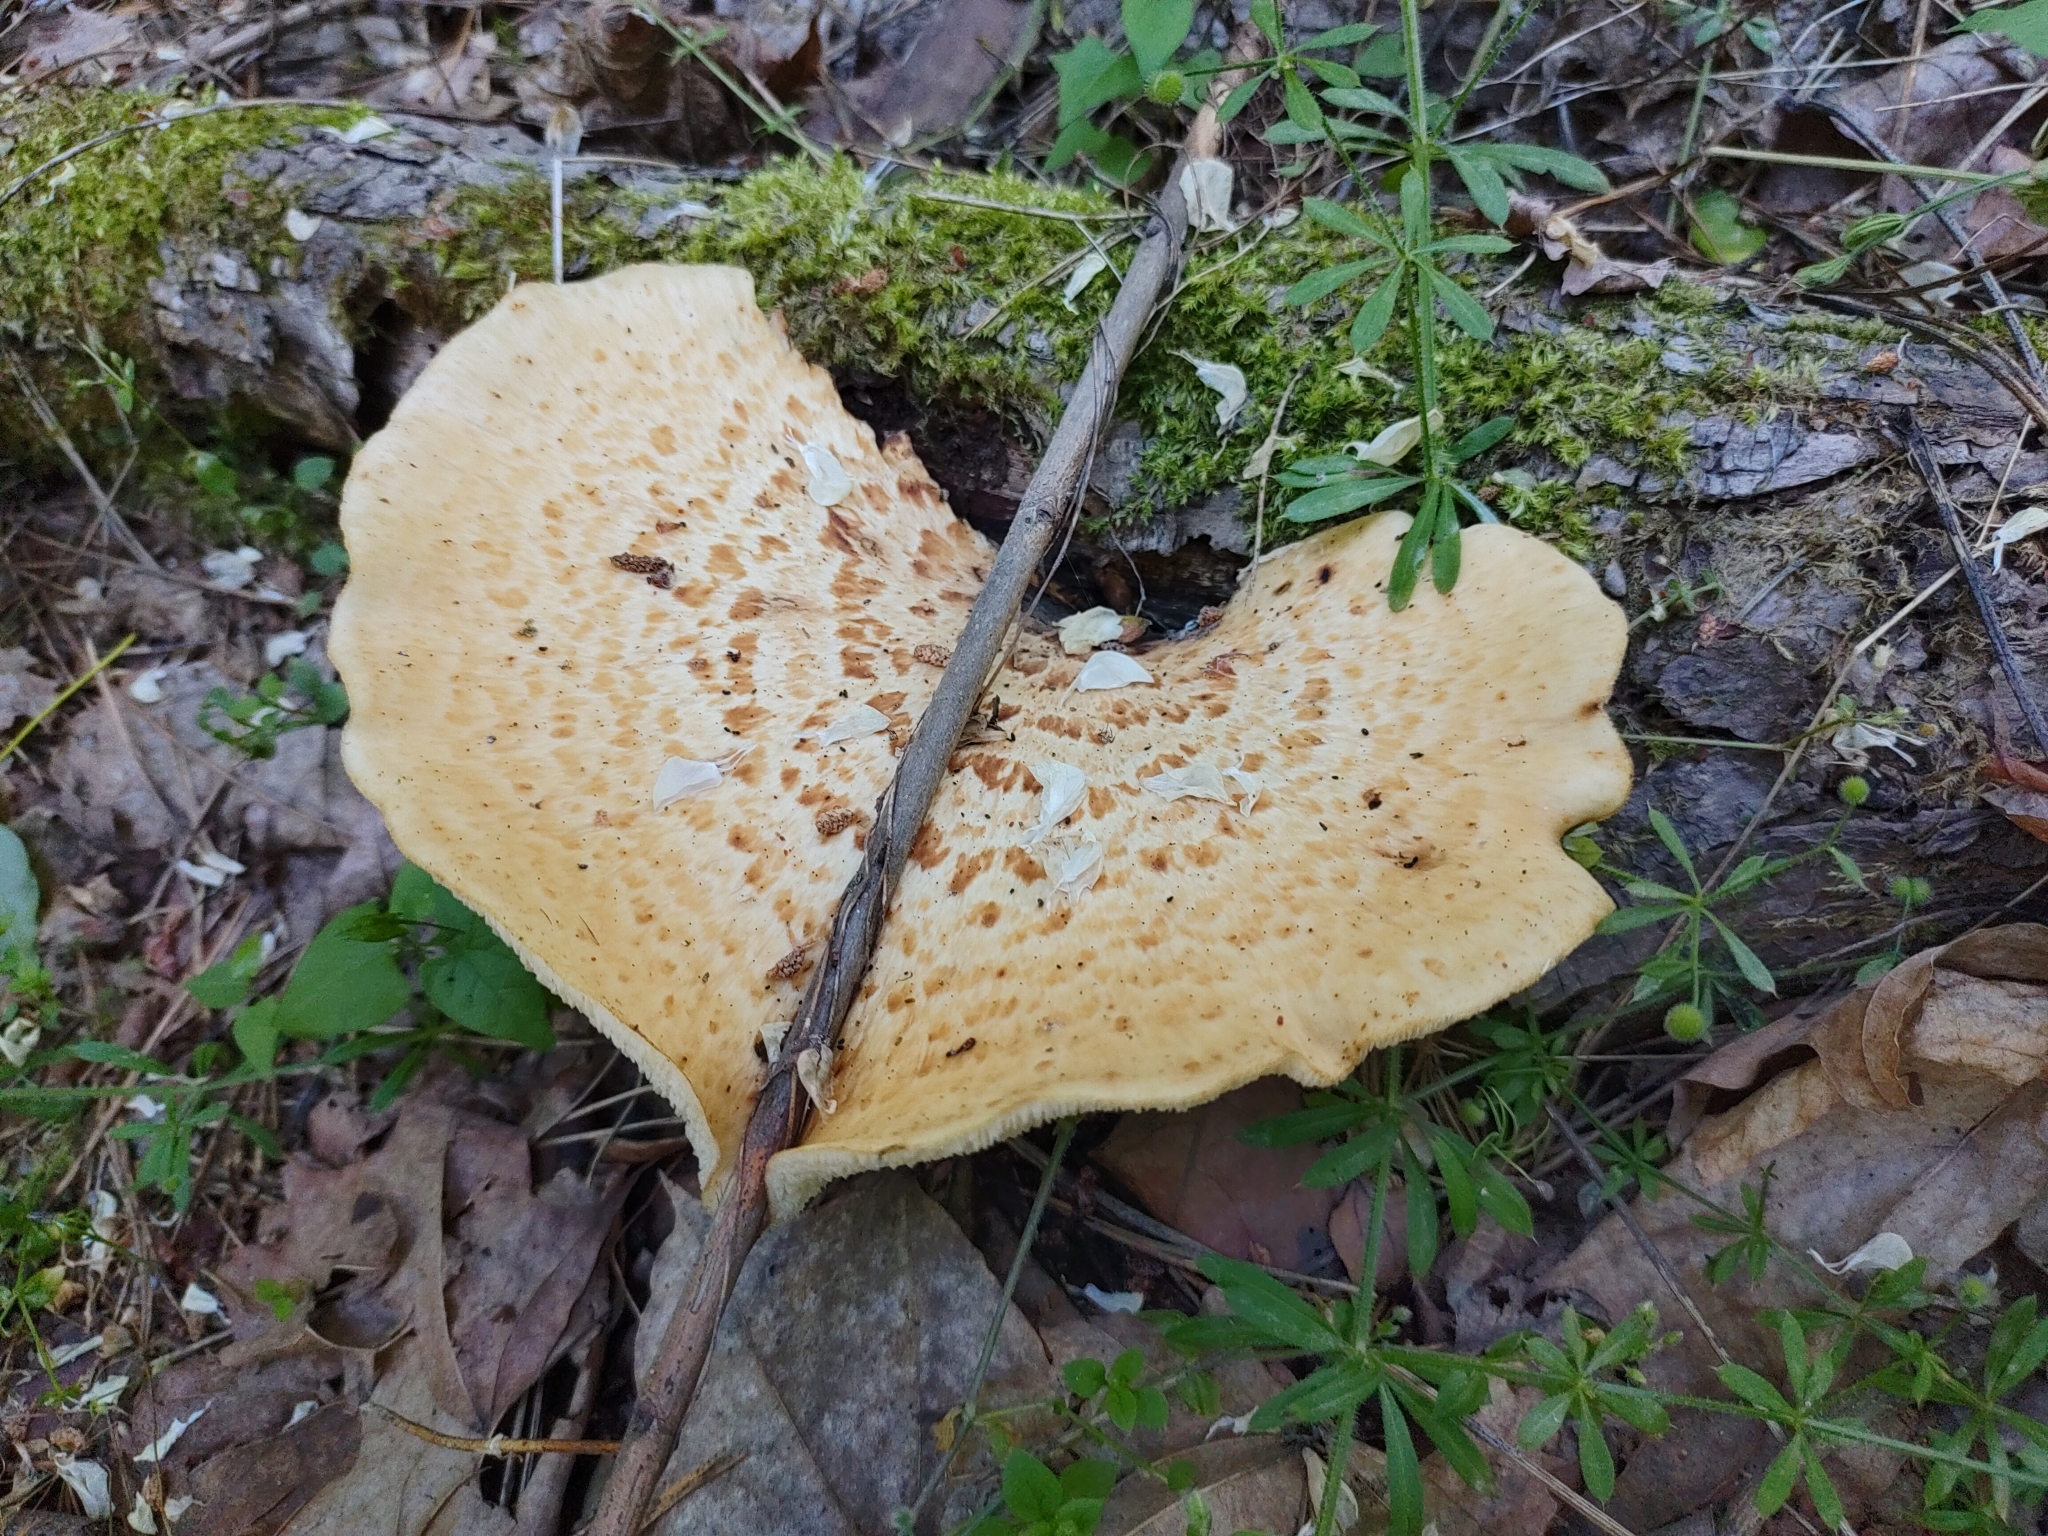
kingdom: Fungi
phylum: Basidiomycota
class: Agaricomycetes
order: Polyporales
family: Polyporaceae
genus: Cerioporus
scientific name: Cerioporus squamosus
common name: Dryad's saddle
